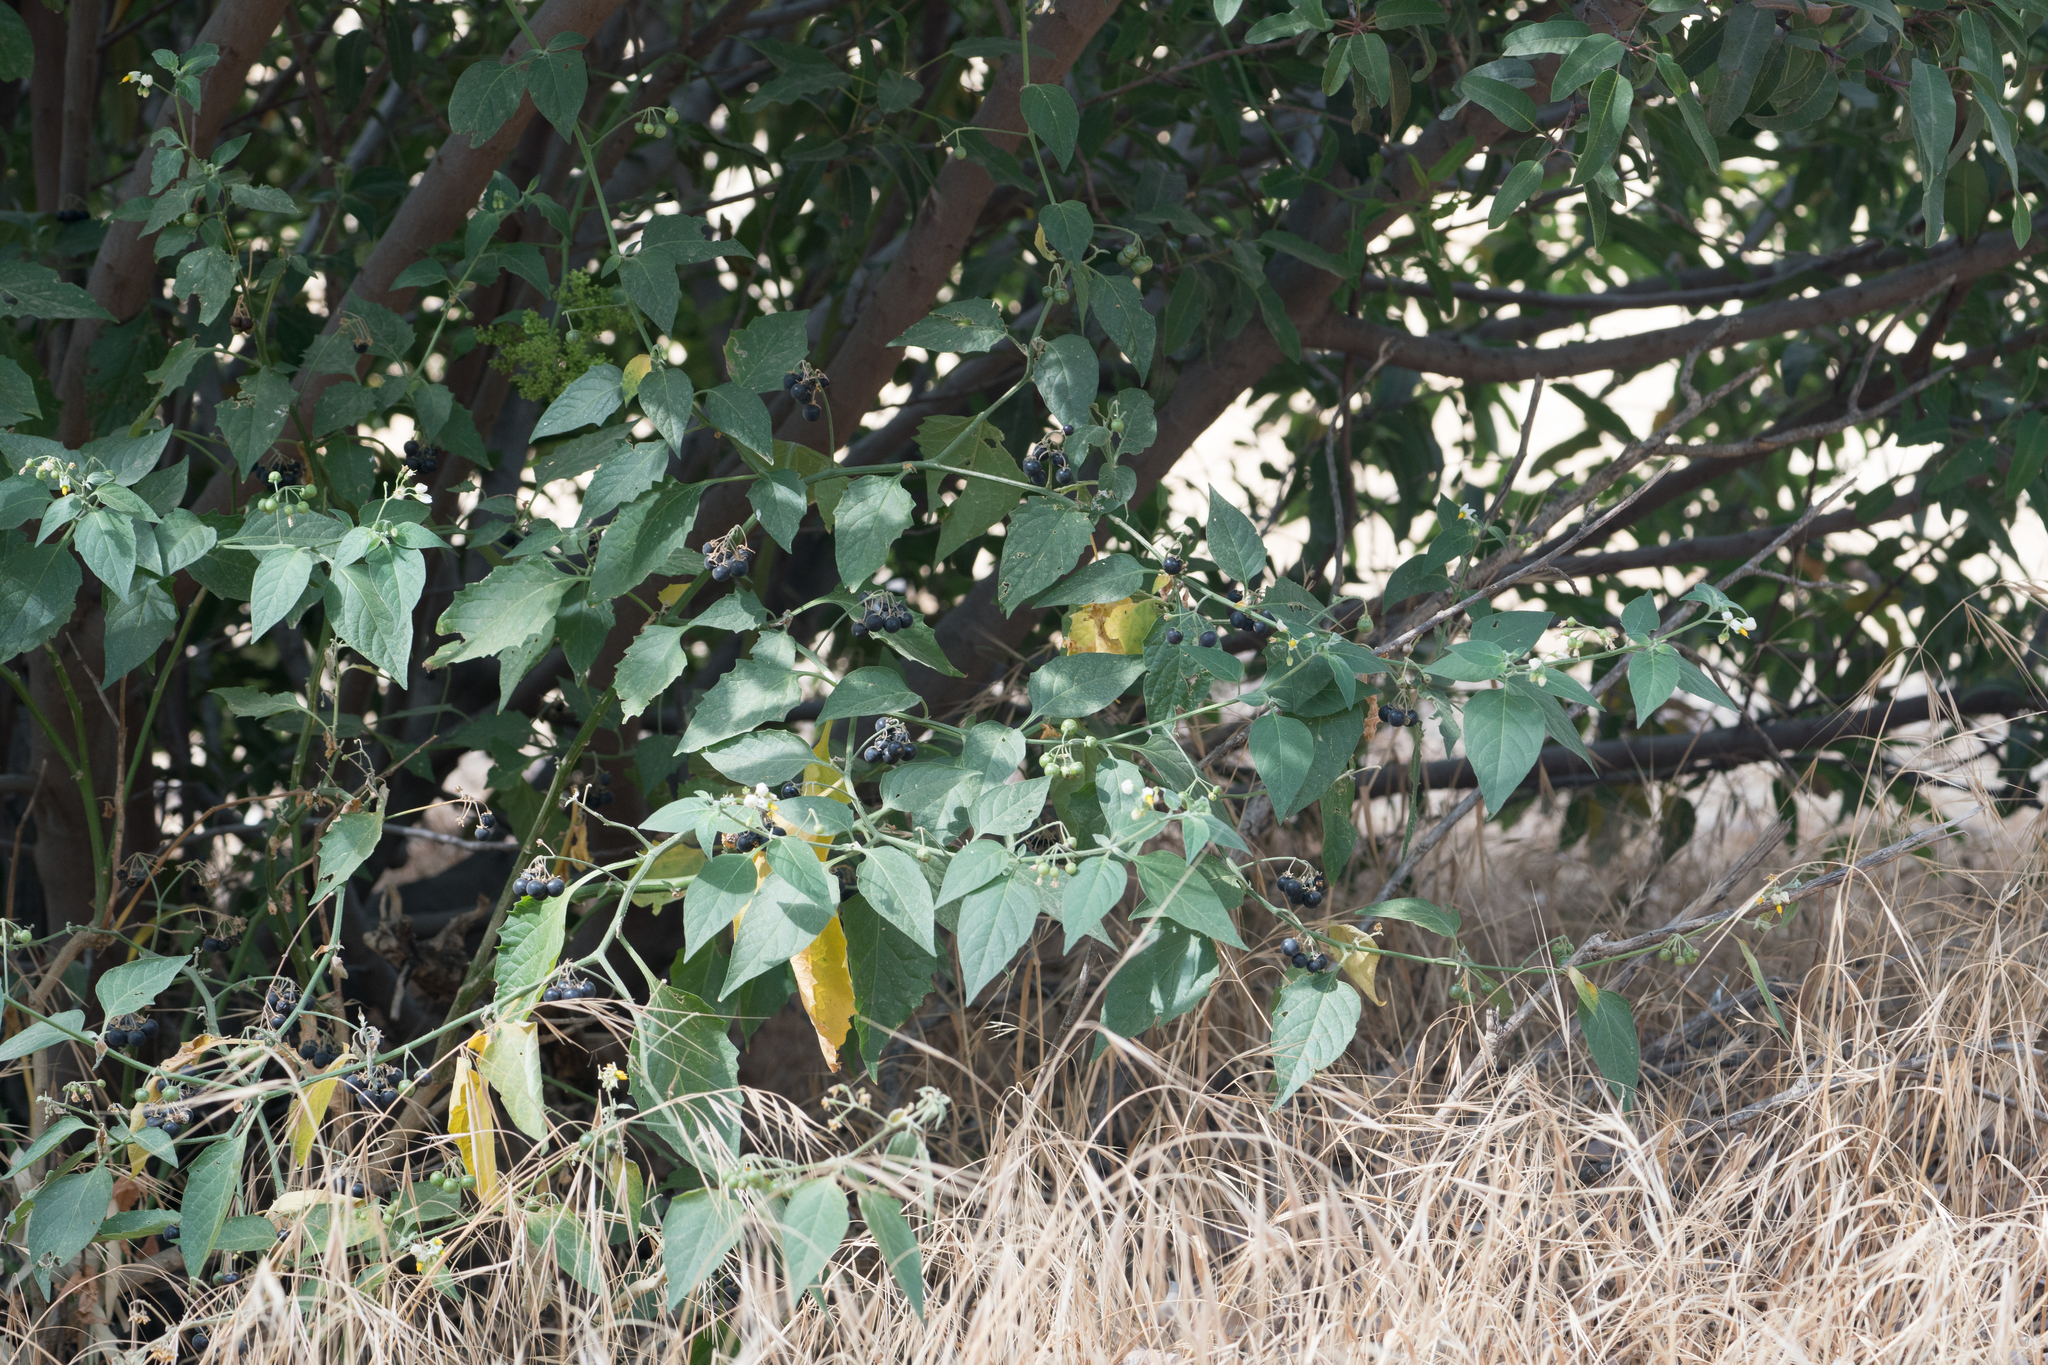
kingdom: Plantae
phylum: Tracheophyta
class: Magnoliopsida
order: Solanales
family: Solanaceae
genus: Solanum
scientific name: Solanum douglasii
